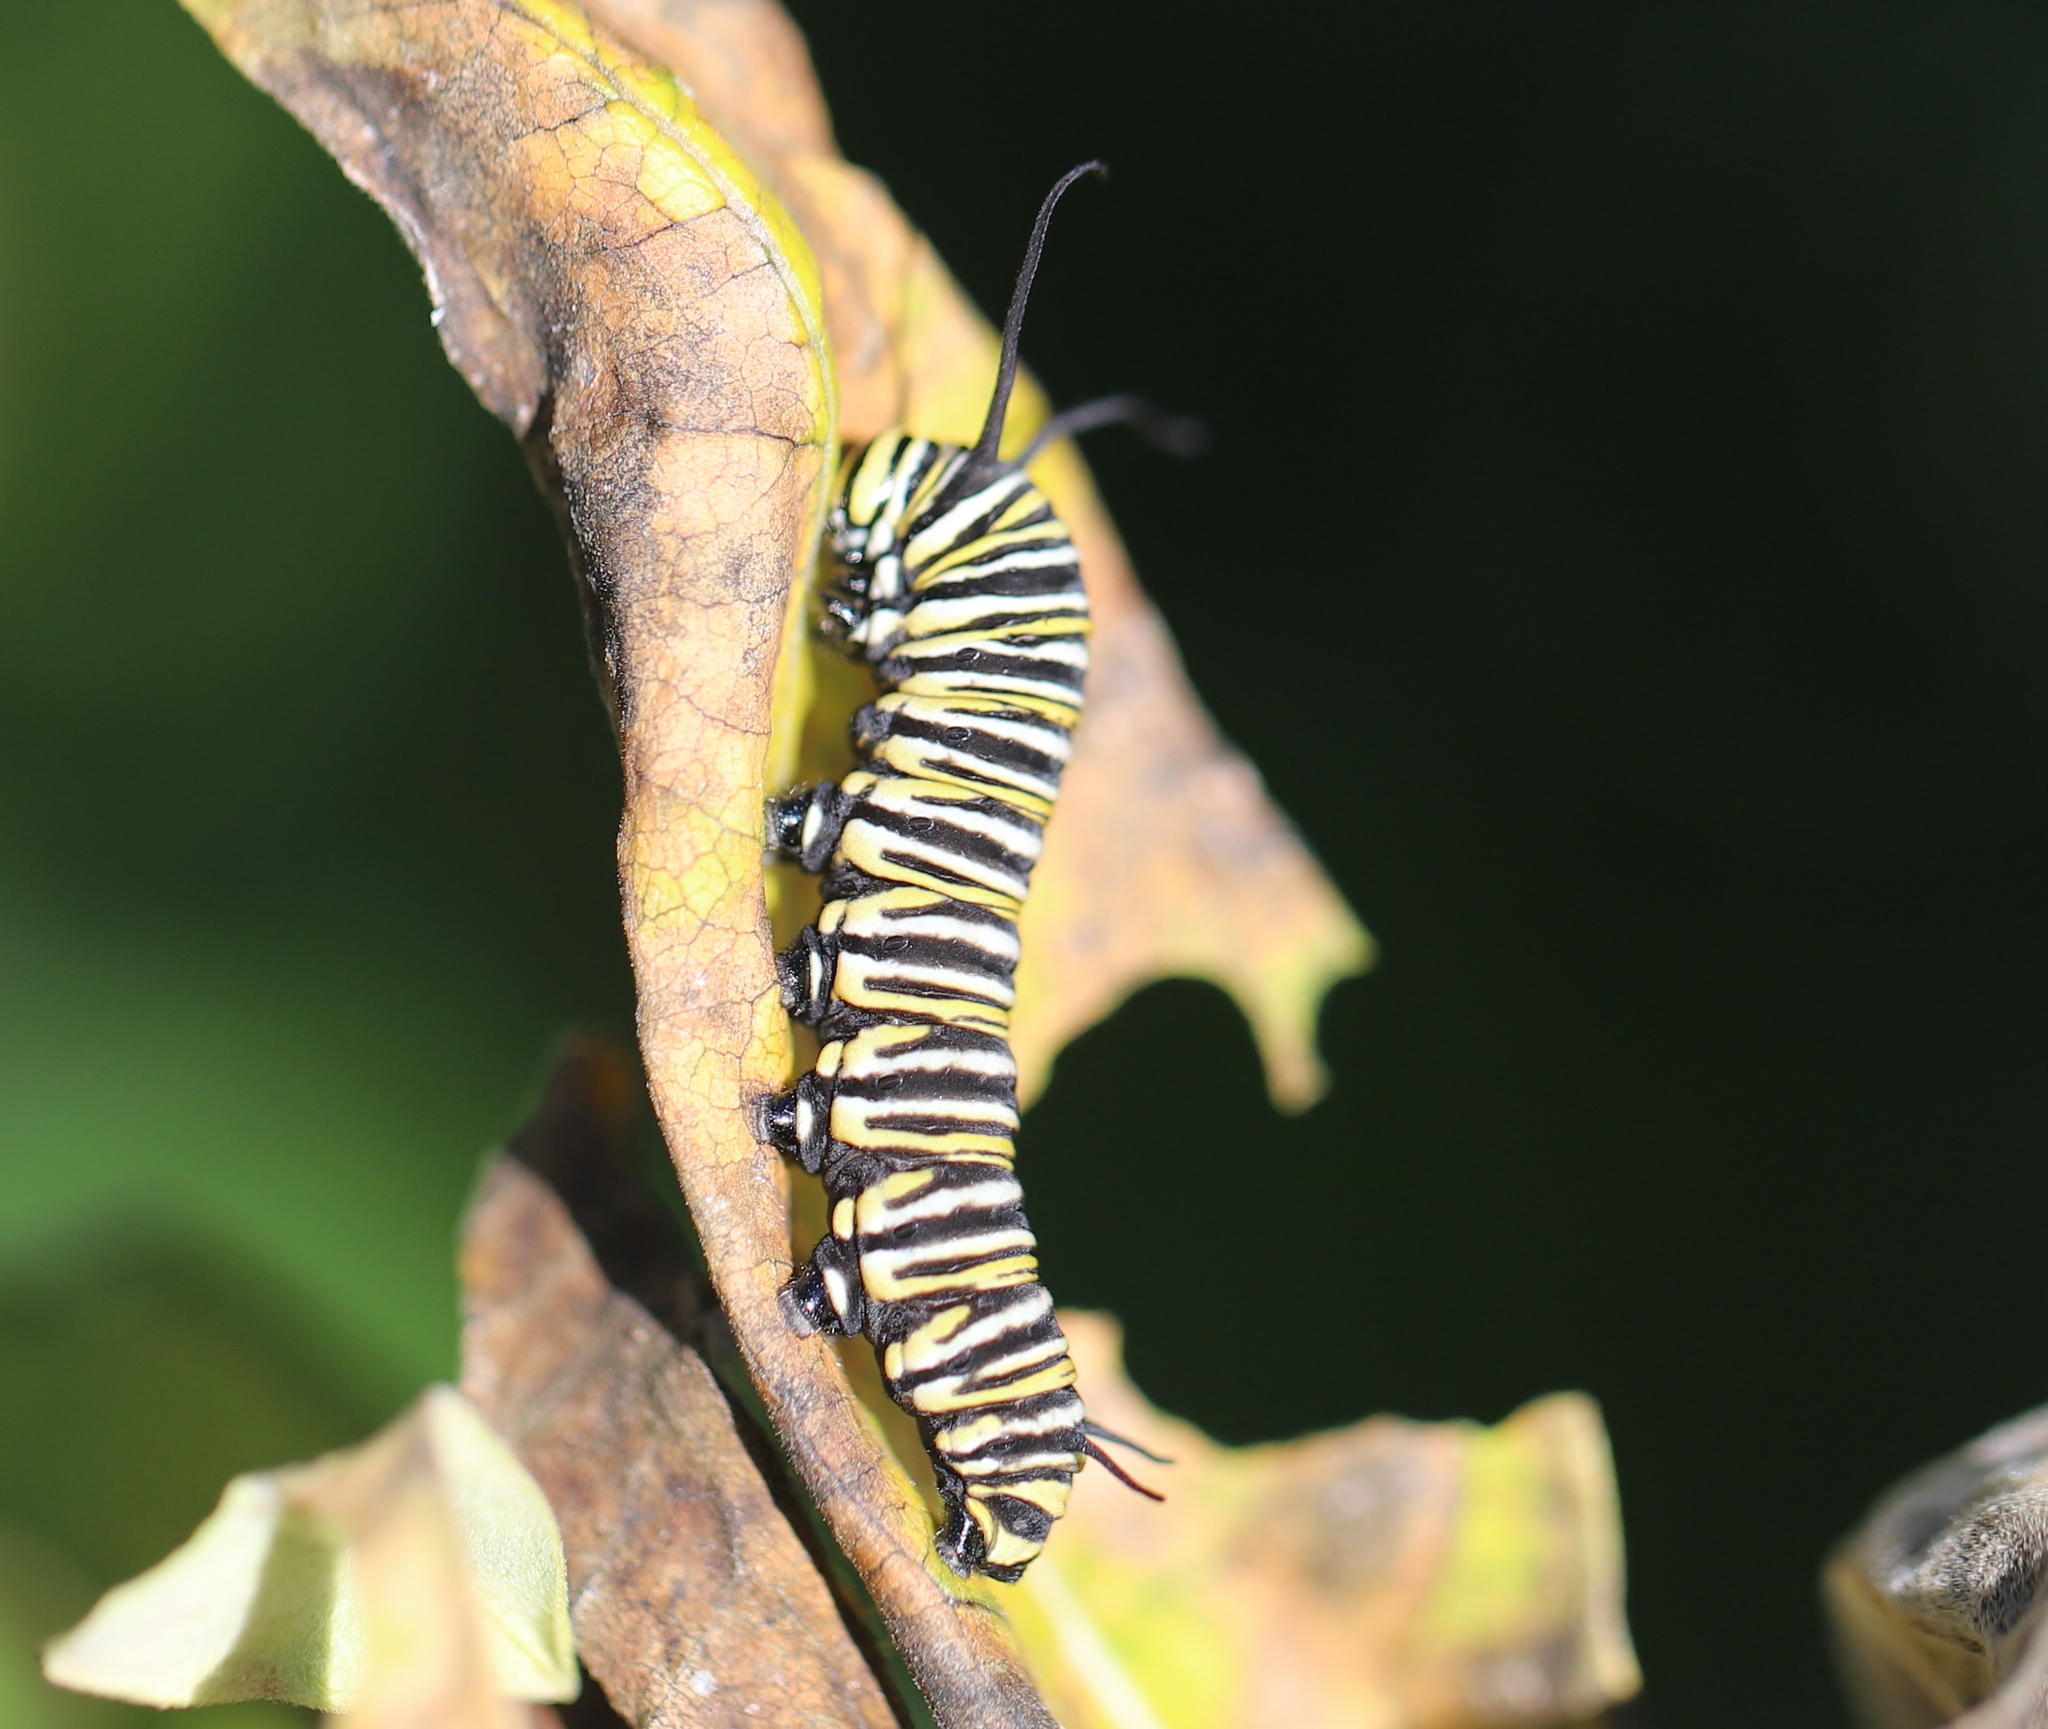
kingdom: Animalia
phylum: Arthropoda
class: Insecta
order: Lepidoptera
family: Nymphalidae
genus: Danaus
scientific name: Danaus plexippus
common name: Monarch
